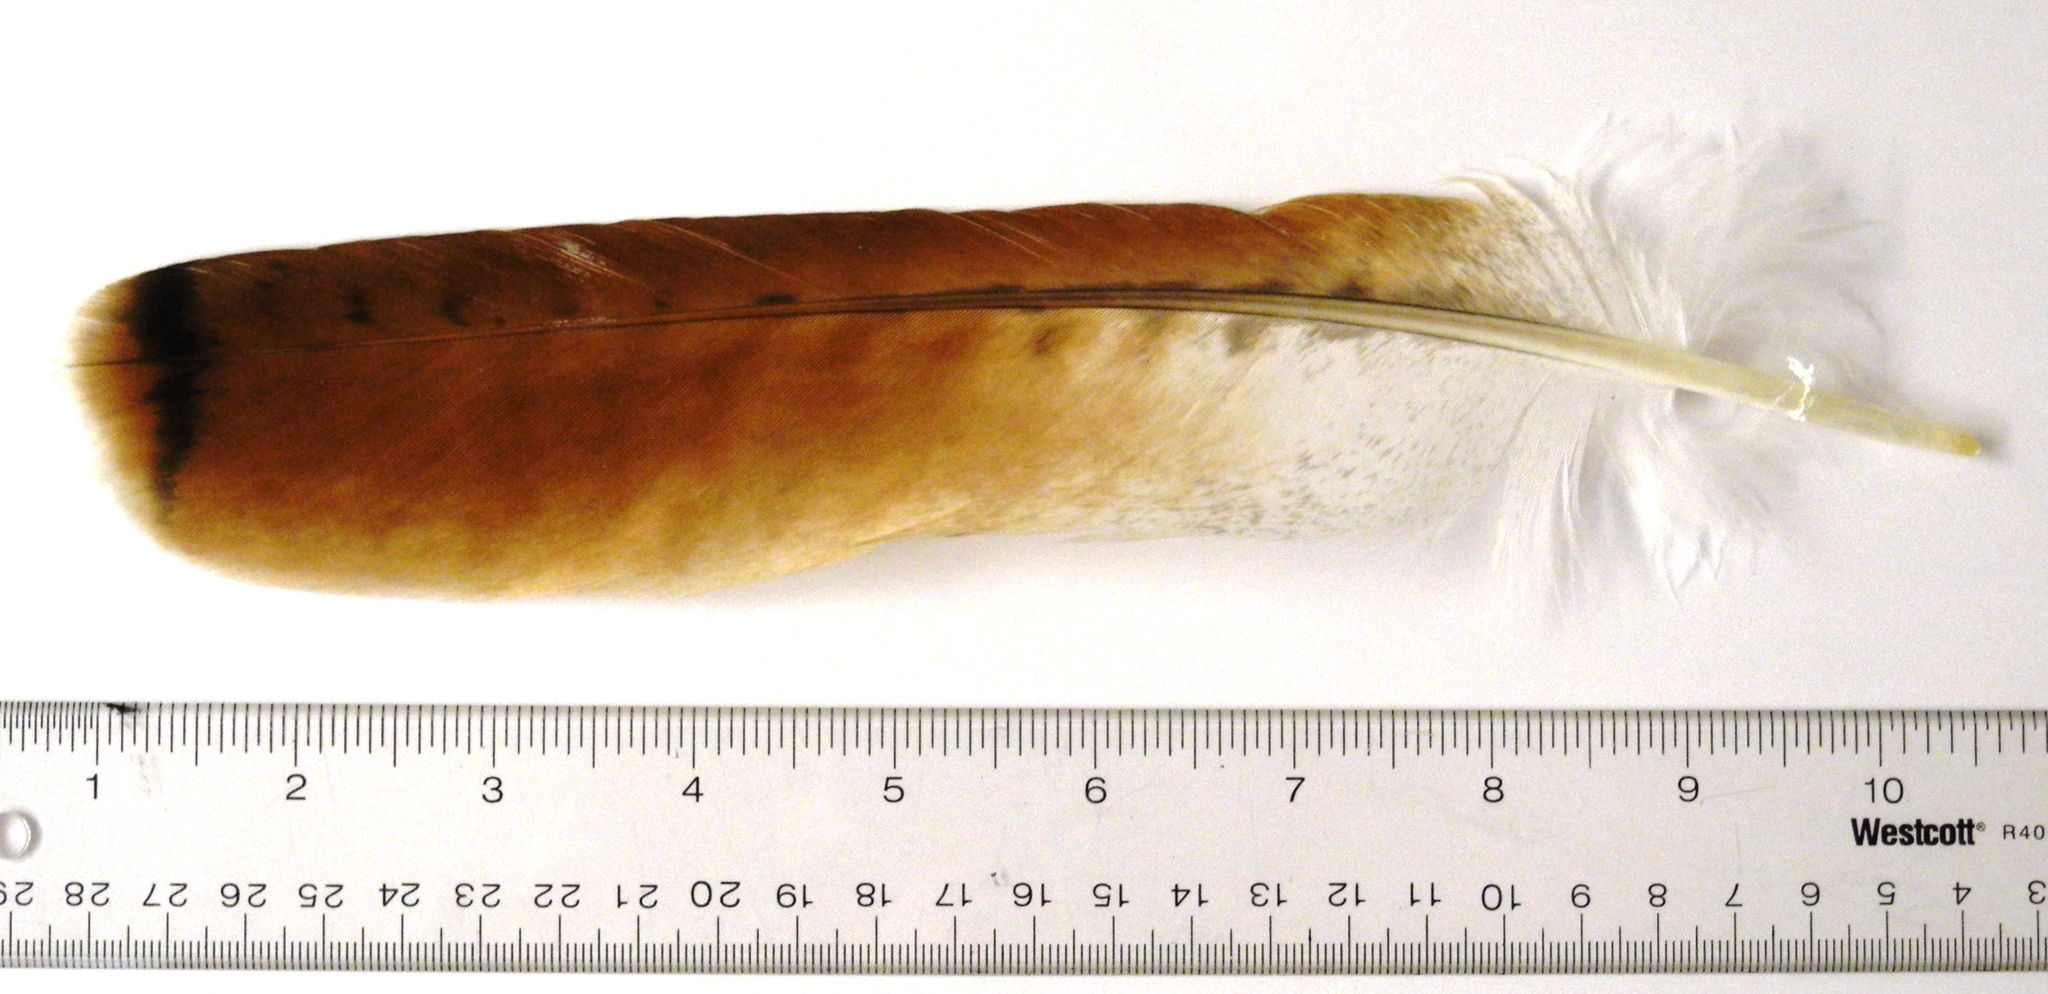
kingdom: Animalia
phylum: Chordata
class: Aves
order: Accipitriformes
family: Accipitridae
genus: Buteo
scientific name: Buteo jamaicensis
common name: Red-tailed hawk
